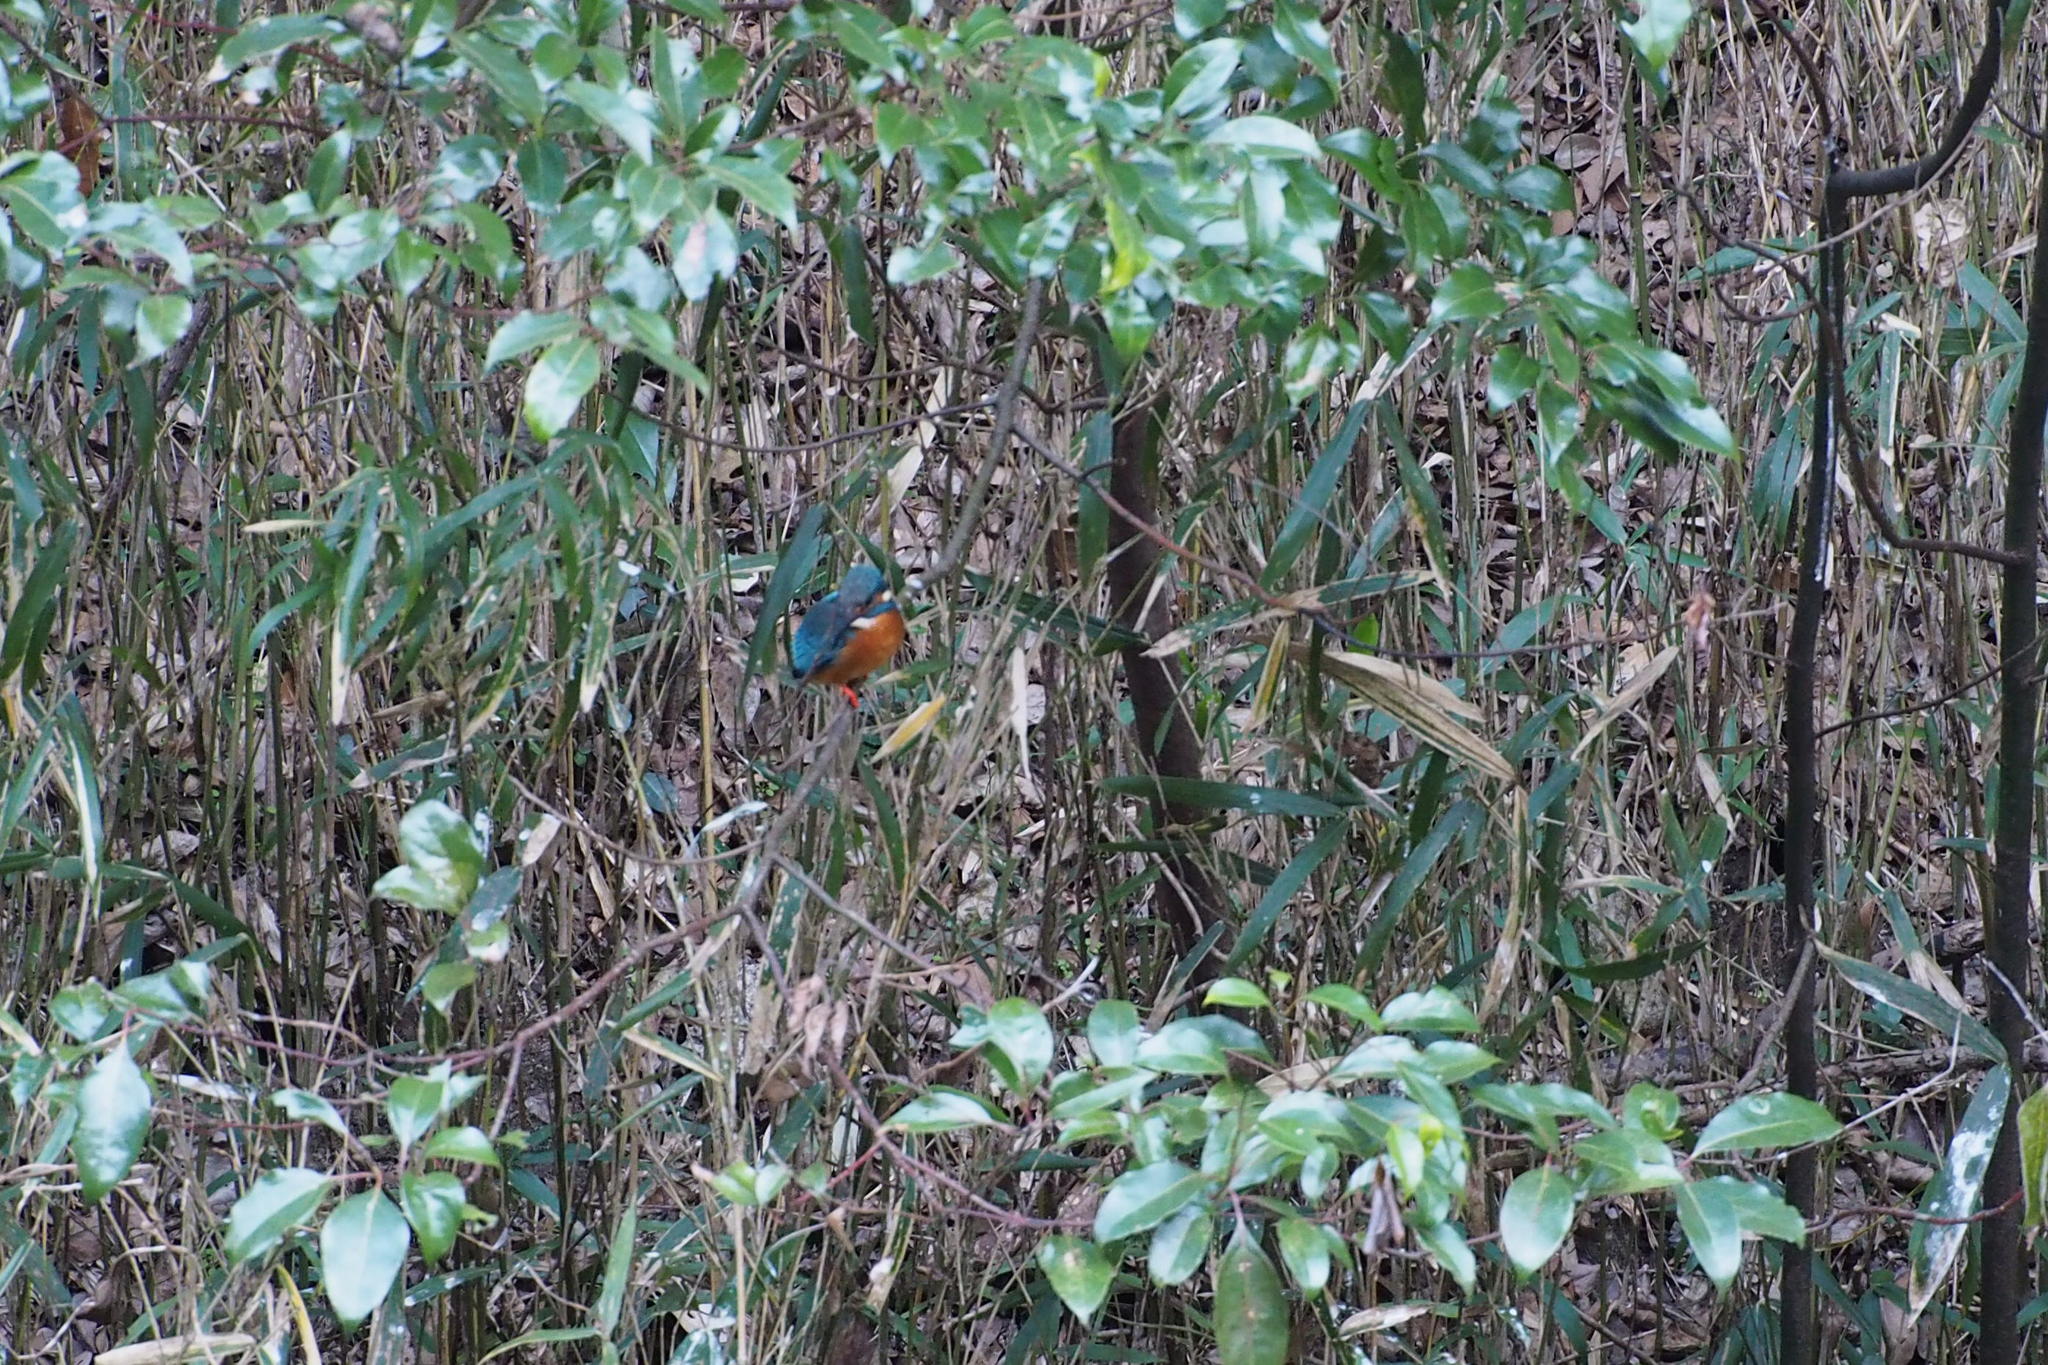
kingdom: Animalia
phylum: Chordata
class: Aves
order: Coraciiformes
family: Alcedinidae
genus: Alcedo
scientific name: Alcedo atthis
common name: Common kingfisher
